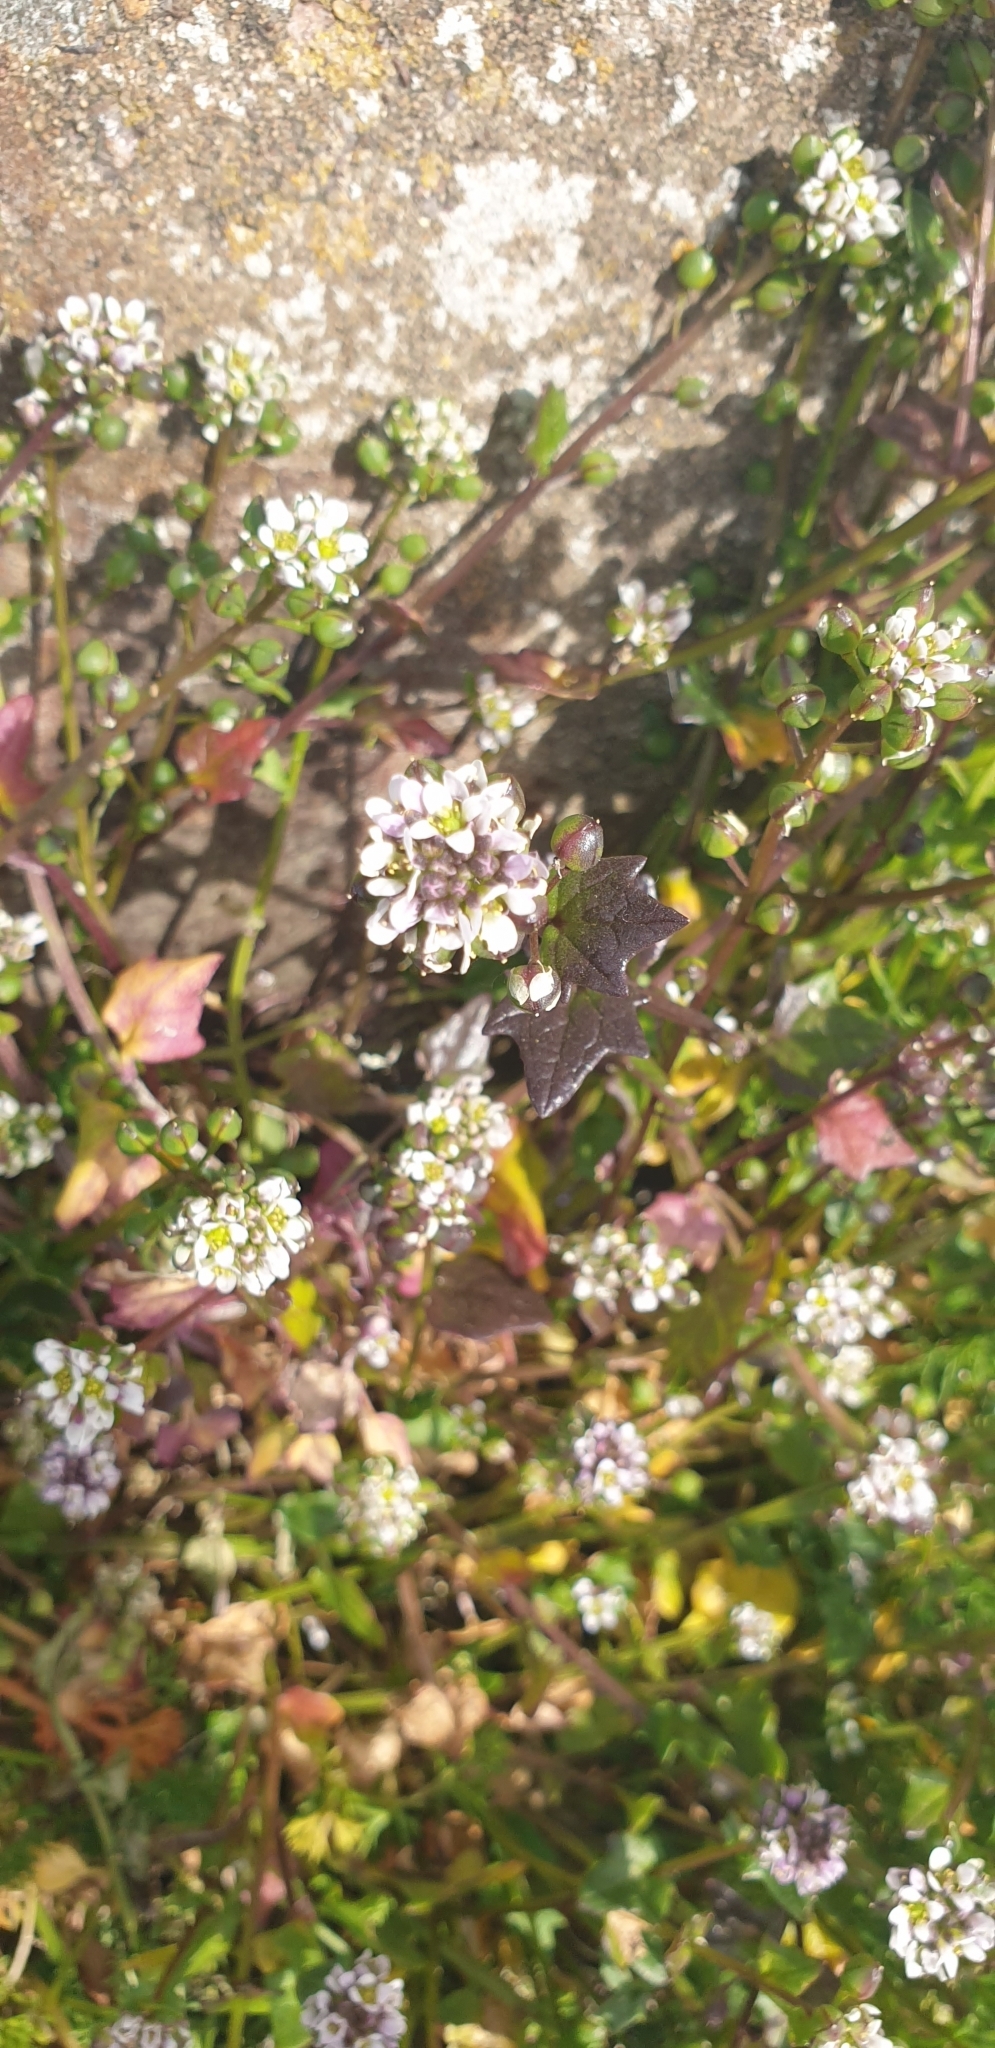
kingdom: Plantae
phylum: Tracheophyta
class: Magnoliopsida
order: Brassicales
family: Brassicaceae
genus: Cochlearia
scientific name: Cochlearia danica
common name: Early scurvygrass
